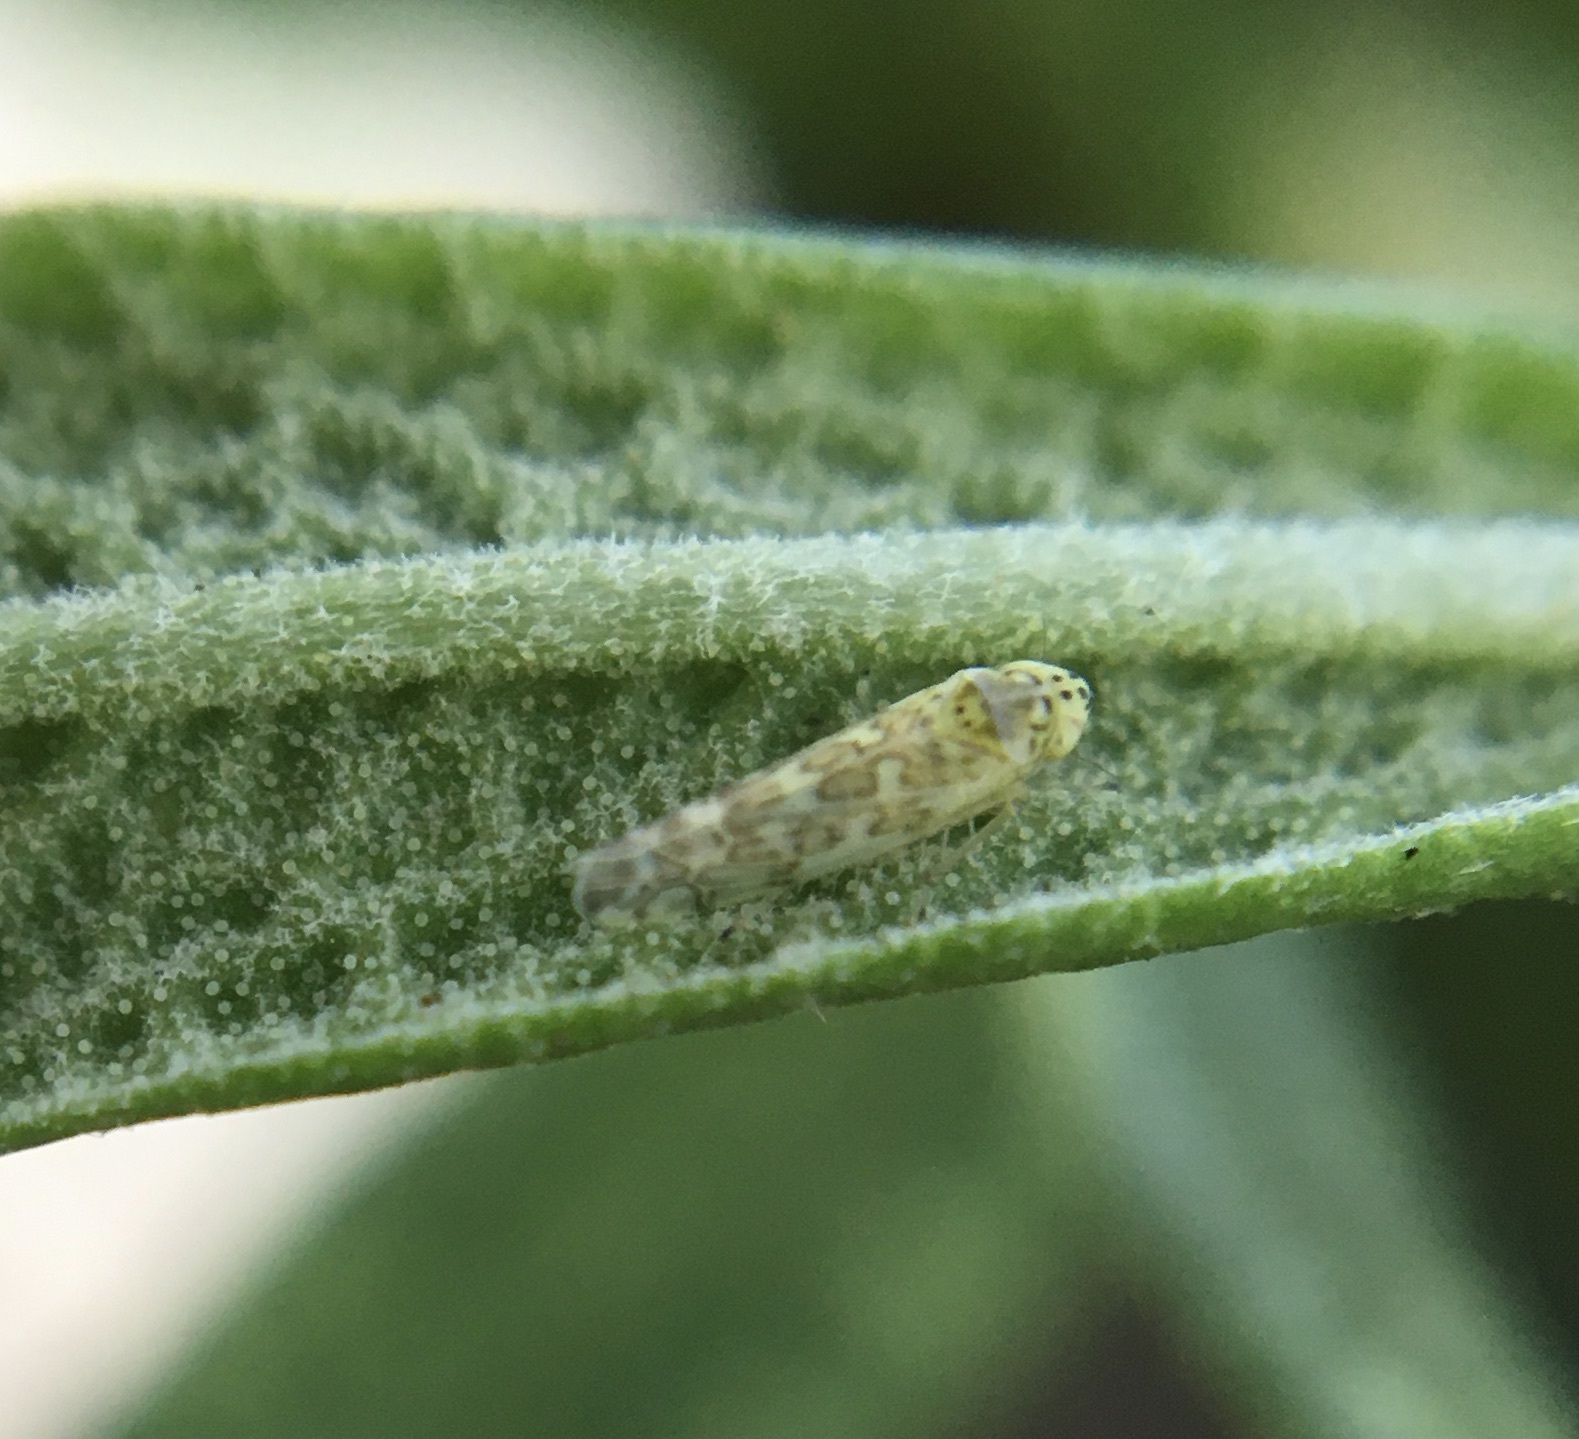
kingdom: Animalia
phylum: Arthropoda
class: Insecta
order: Hemiptera
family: Cicadellidae
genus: Eupteryx
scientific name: Eupteryx decemnotata
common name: Ligurian leafhopper
